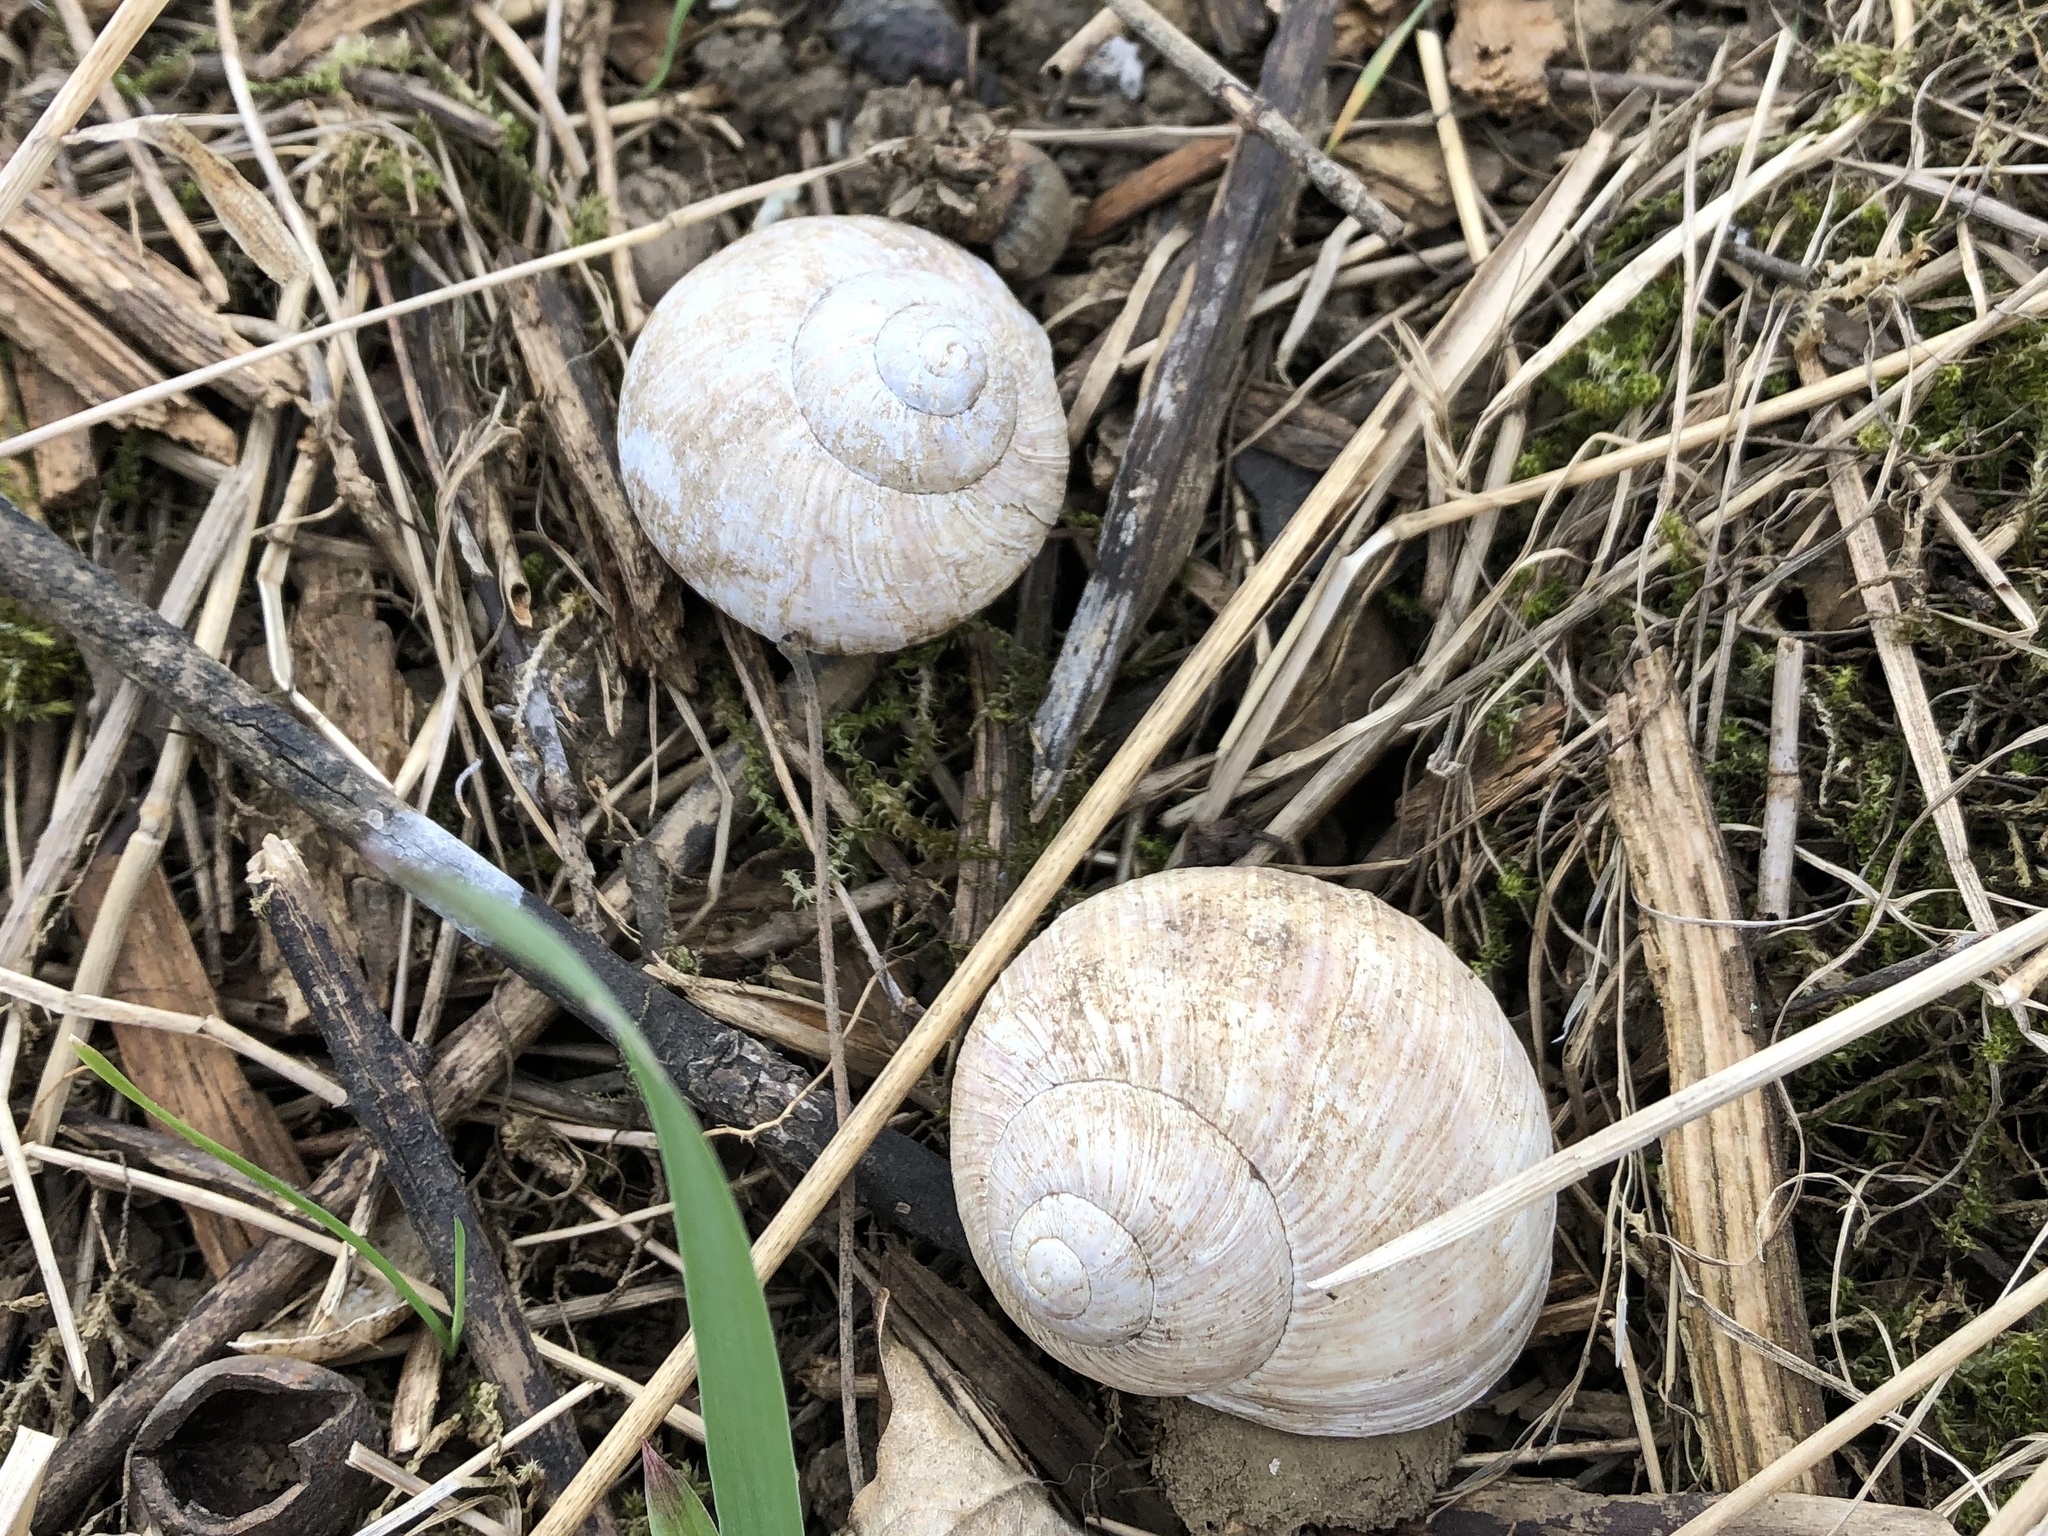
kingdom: Animalia
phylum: Mollusca
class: Gastropoda
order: Stylommatophora
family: Helicidae
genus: Helix
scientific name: Helix pomatia
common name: Roman snail
